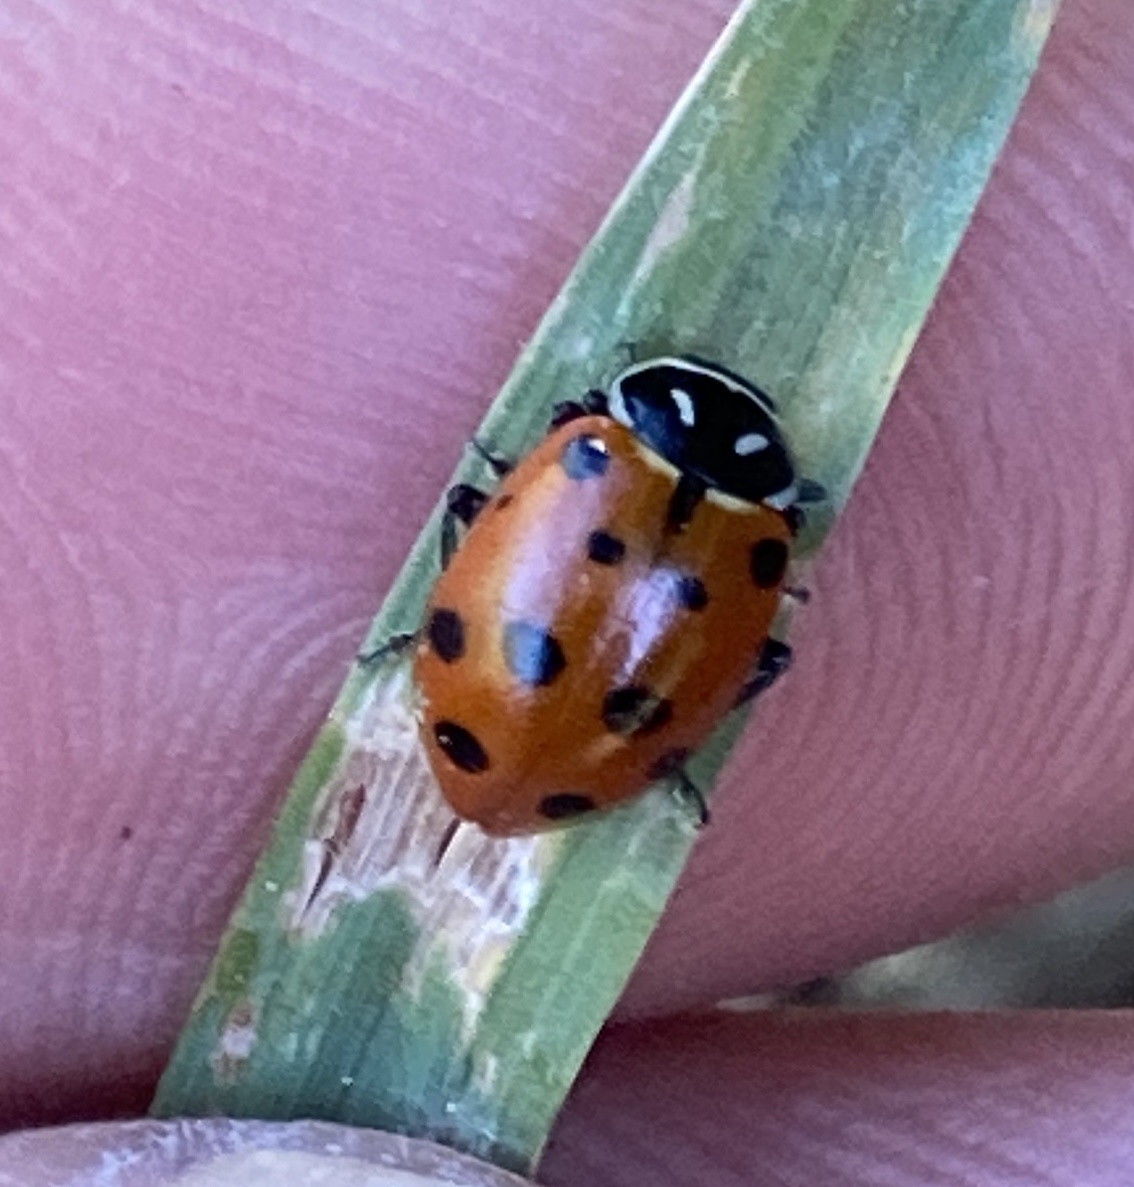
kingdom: Animalia
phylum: Arthropoda
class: Insecta
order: Coleoptera
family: Coccinellidae
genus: Hippodamia
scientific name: Hippodamia convergens
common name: Convergent lady beetle
